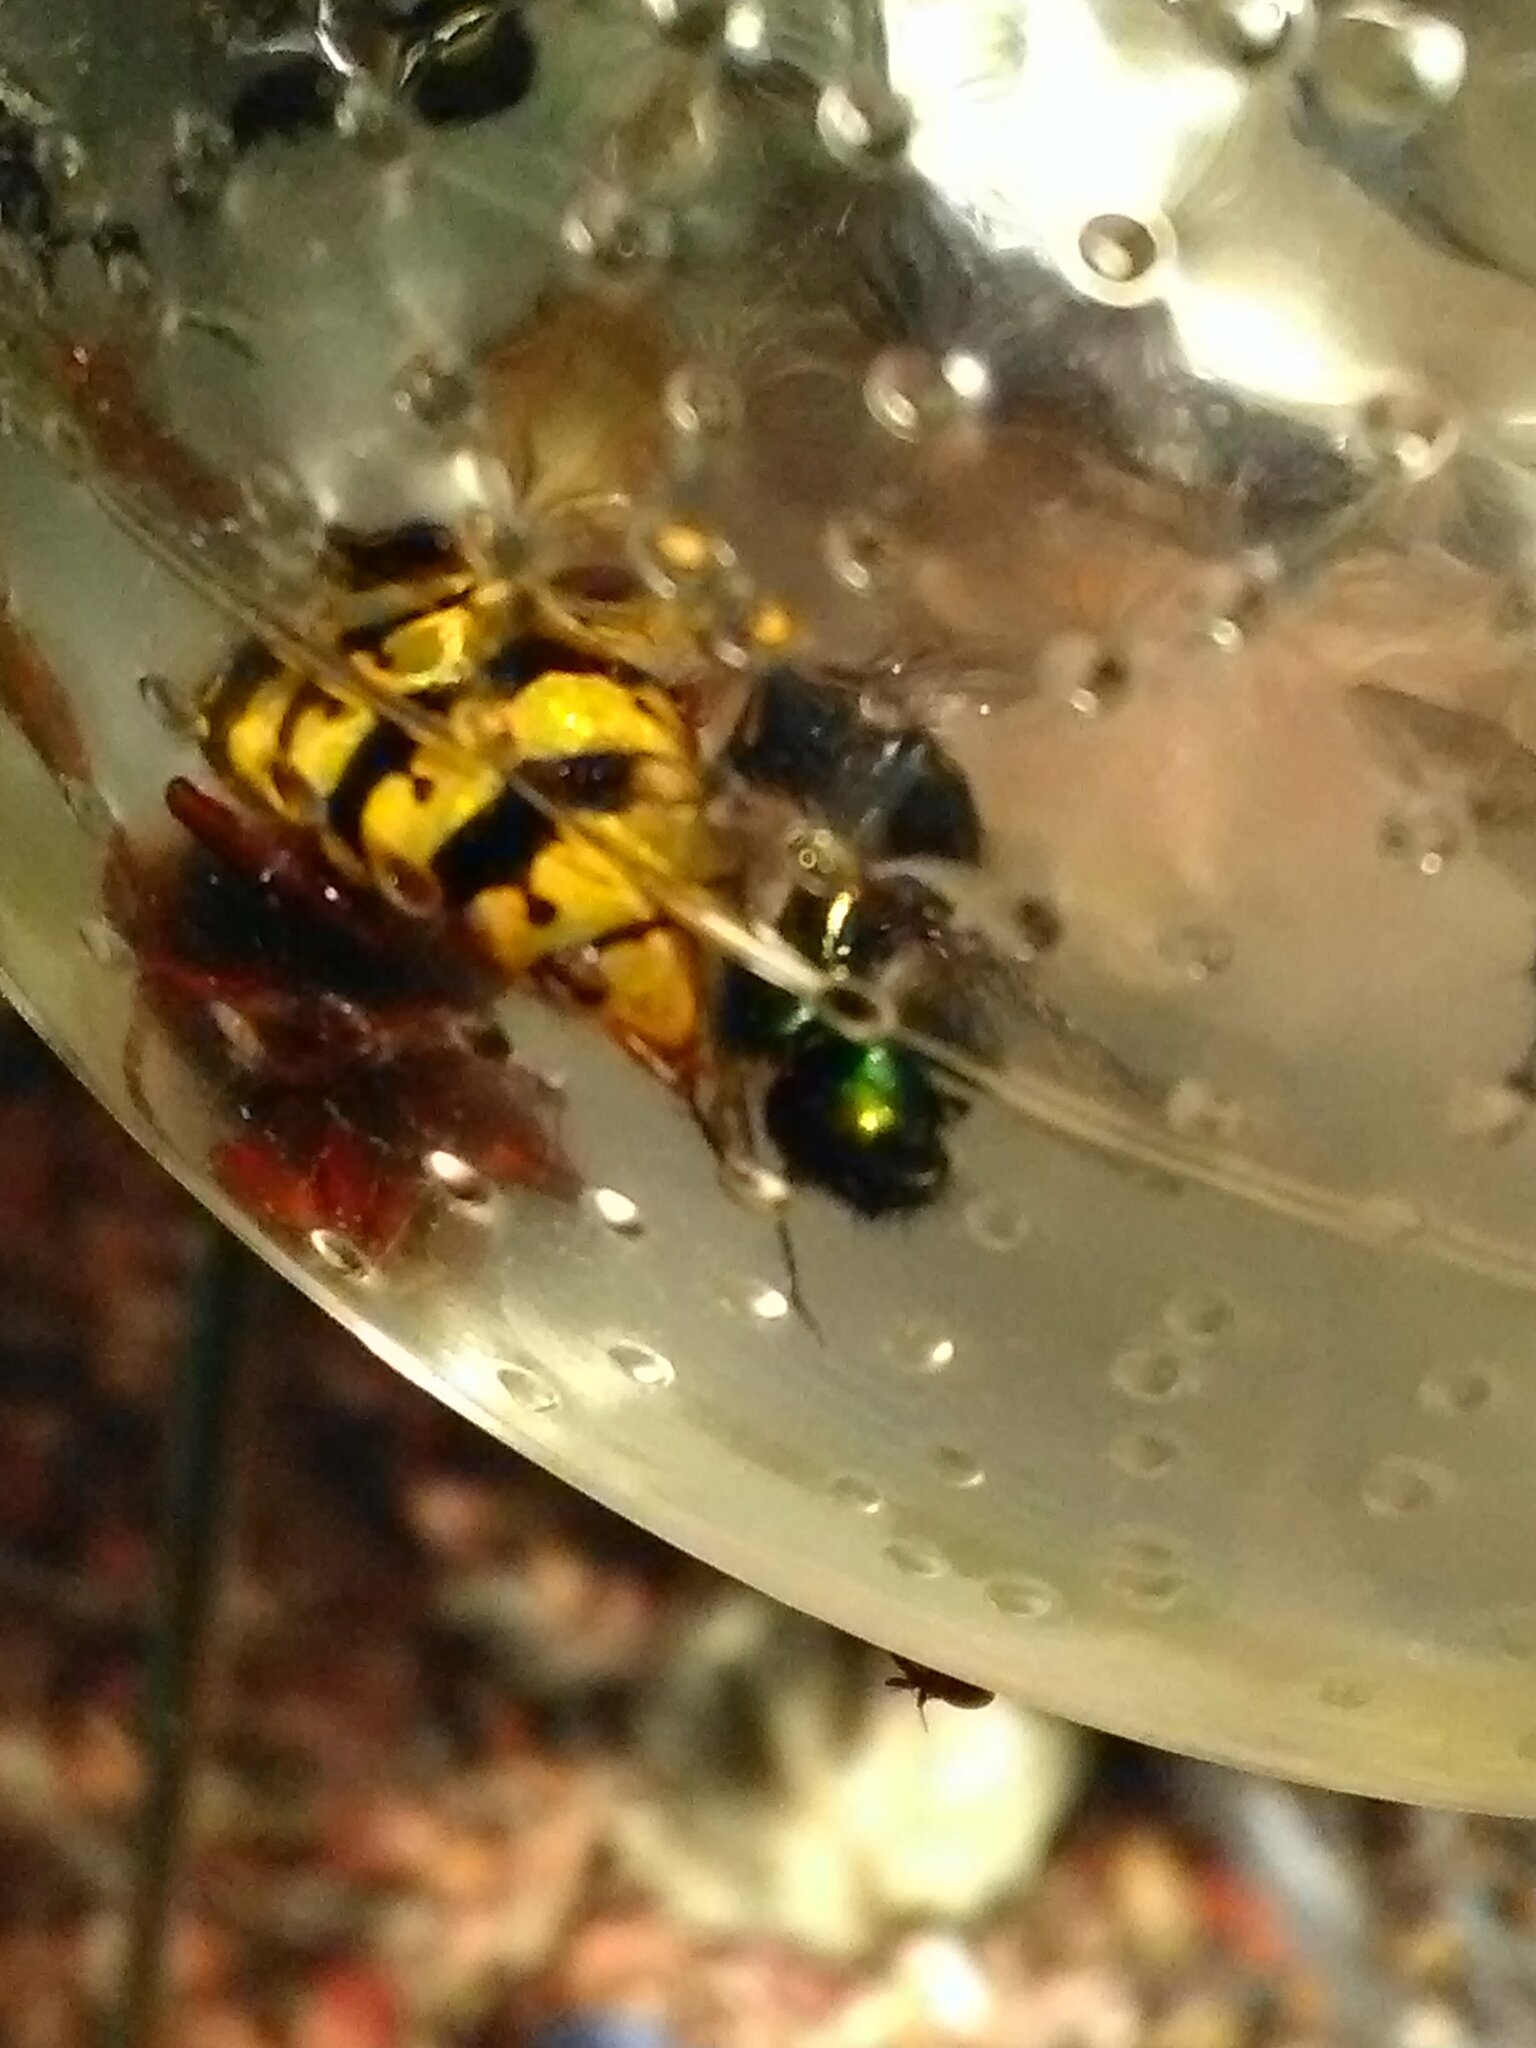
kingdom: Animalia
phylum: Arthropoda
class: Insecta
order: Hymenoptera
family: Vespidae
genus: Vespa
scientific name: Vespa crabro
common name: Hornet
